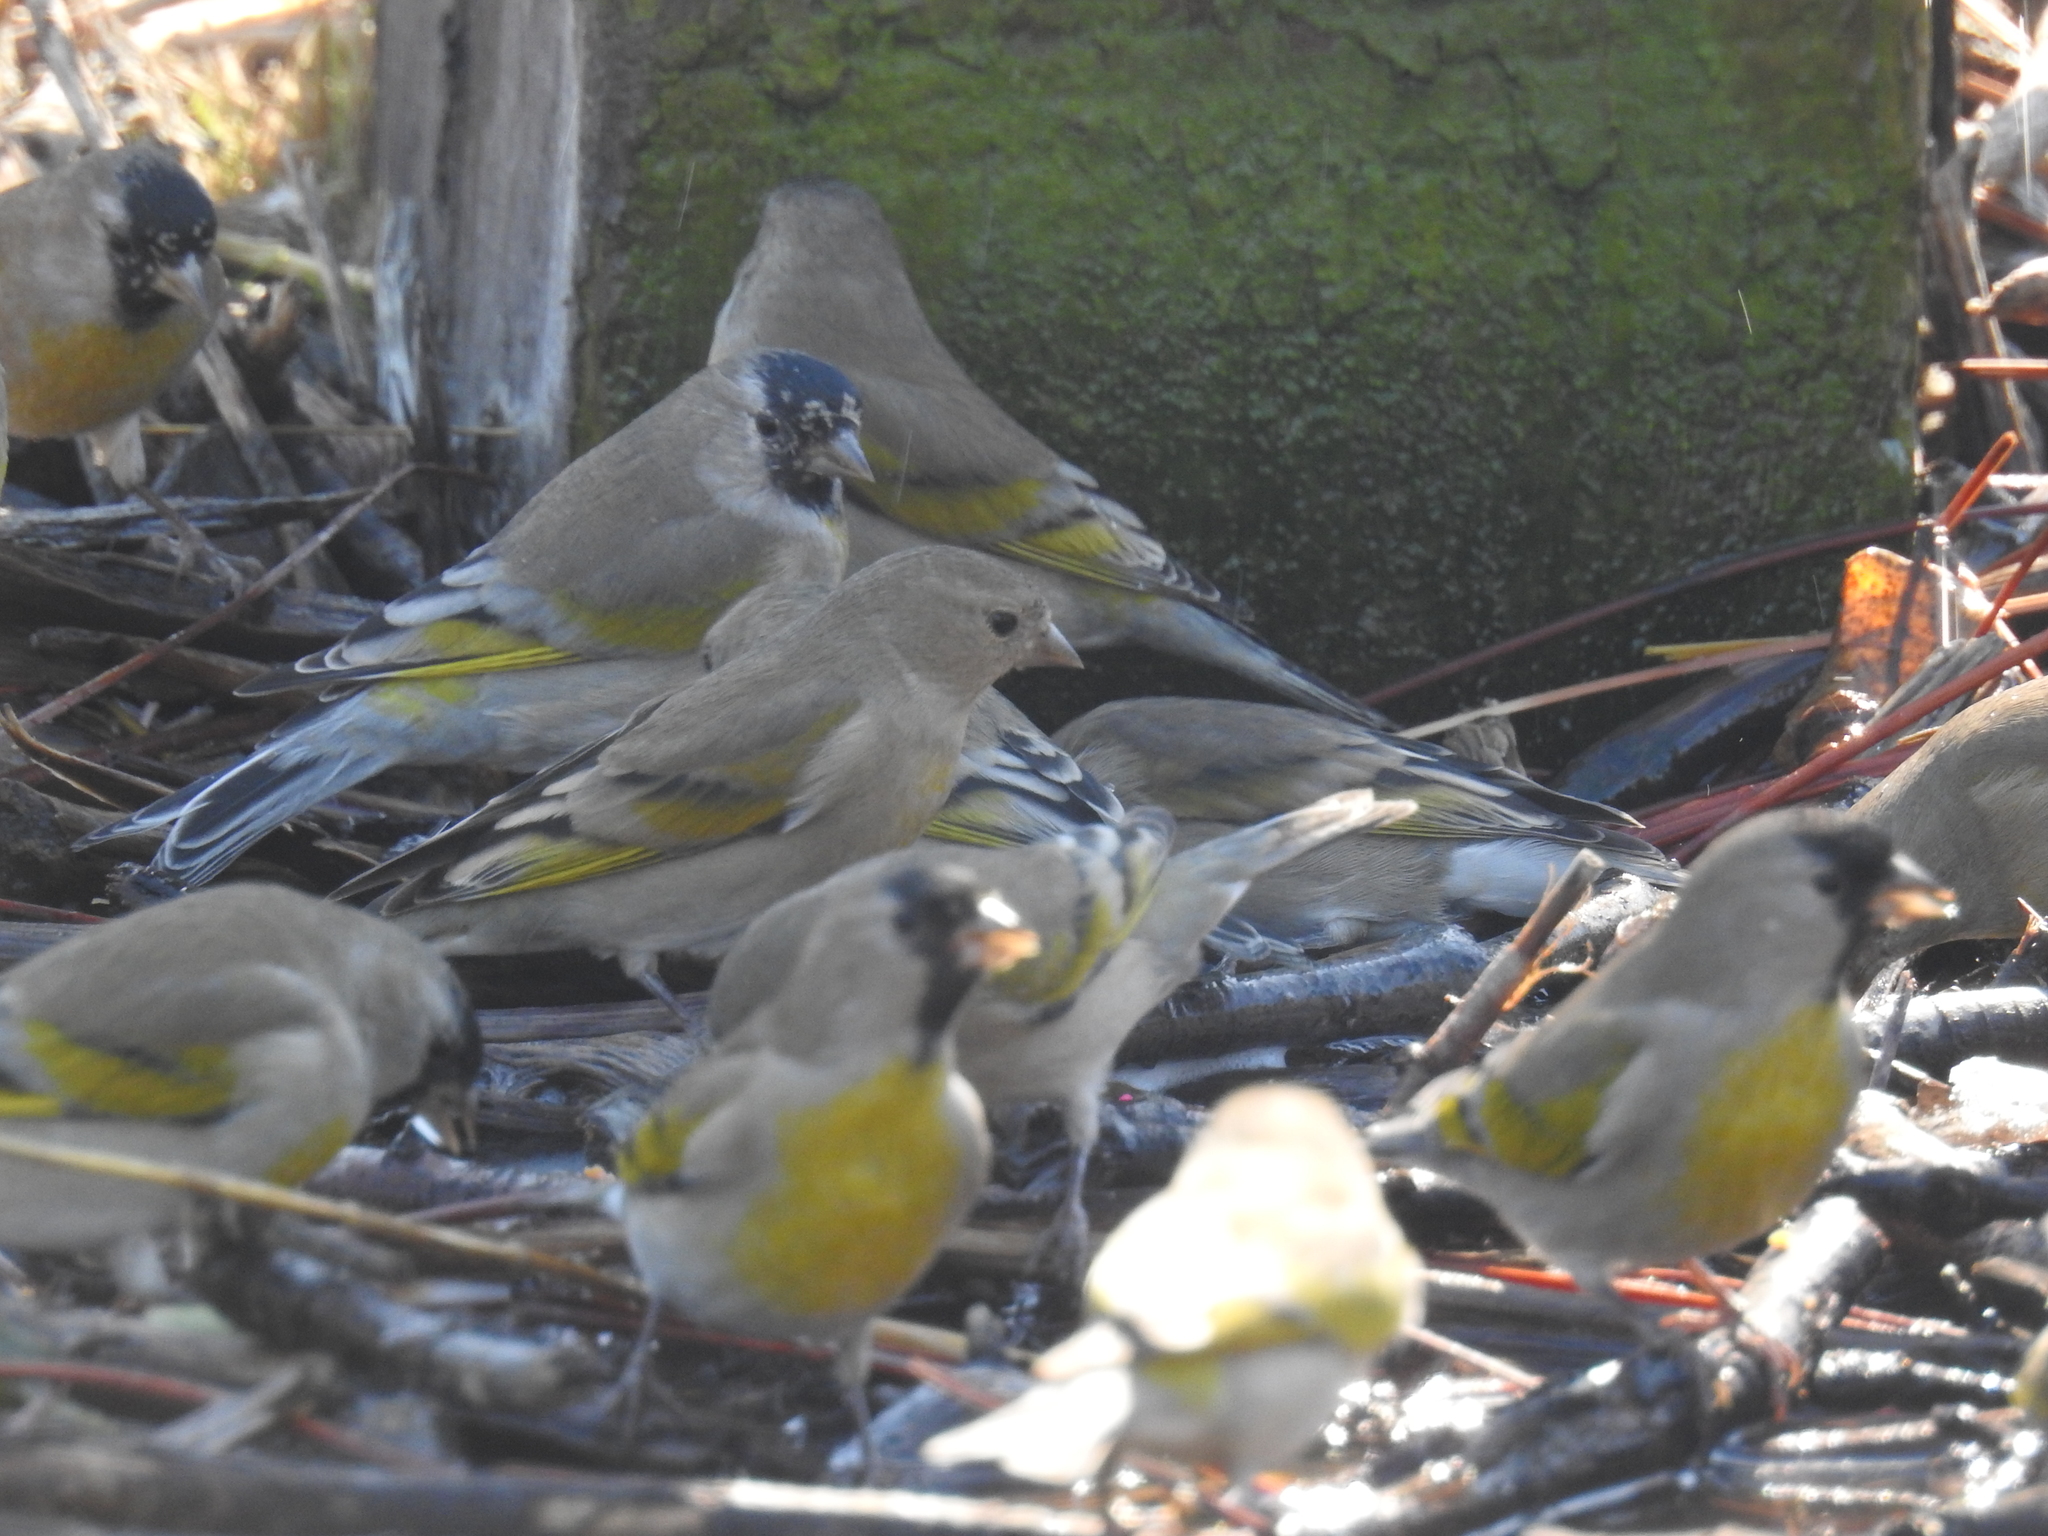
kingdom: Animalia
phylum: Chordata
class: Aves
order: Passeriformes
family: Fringillidae
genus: Spinus
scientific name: Spinus lawrencei
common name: Lawrence's goldfinch
